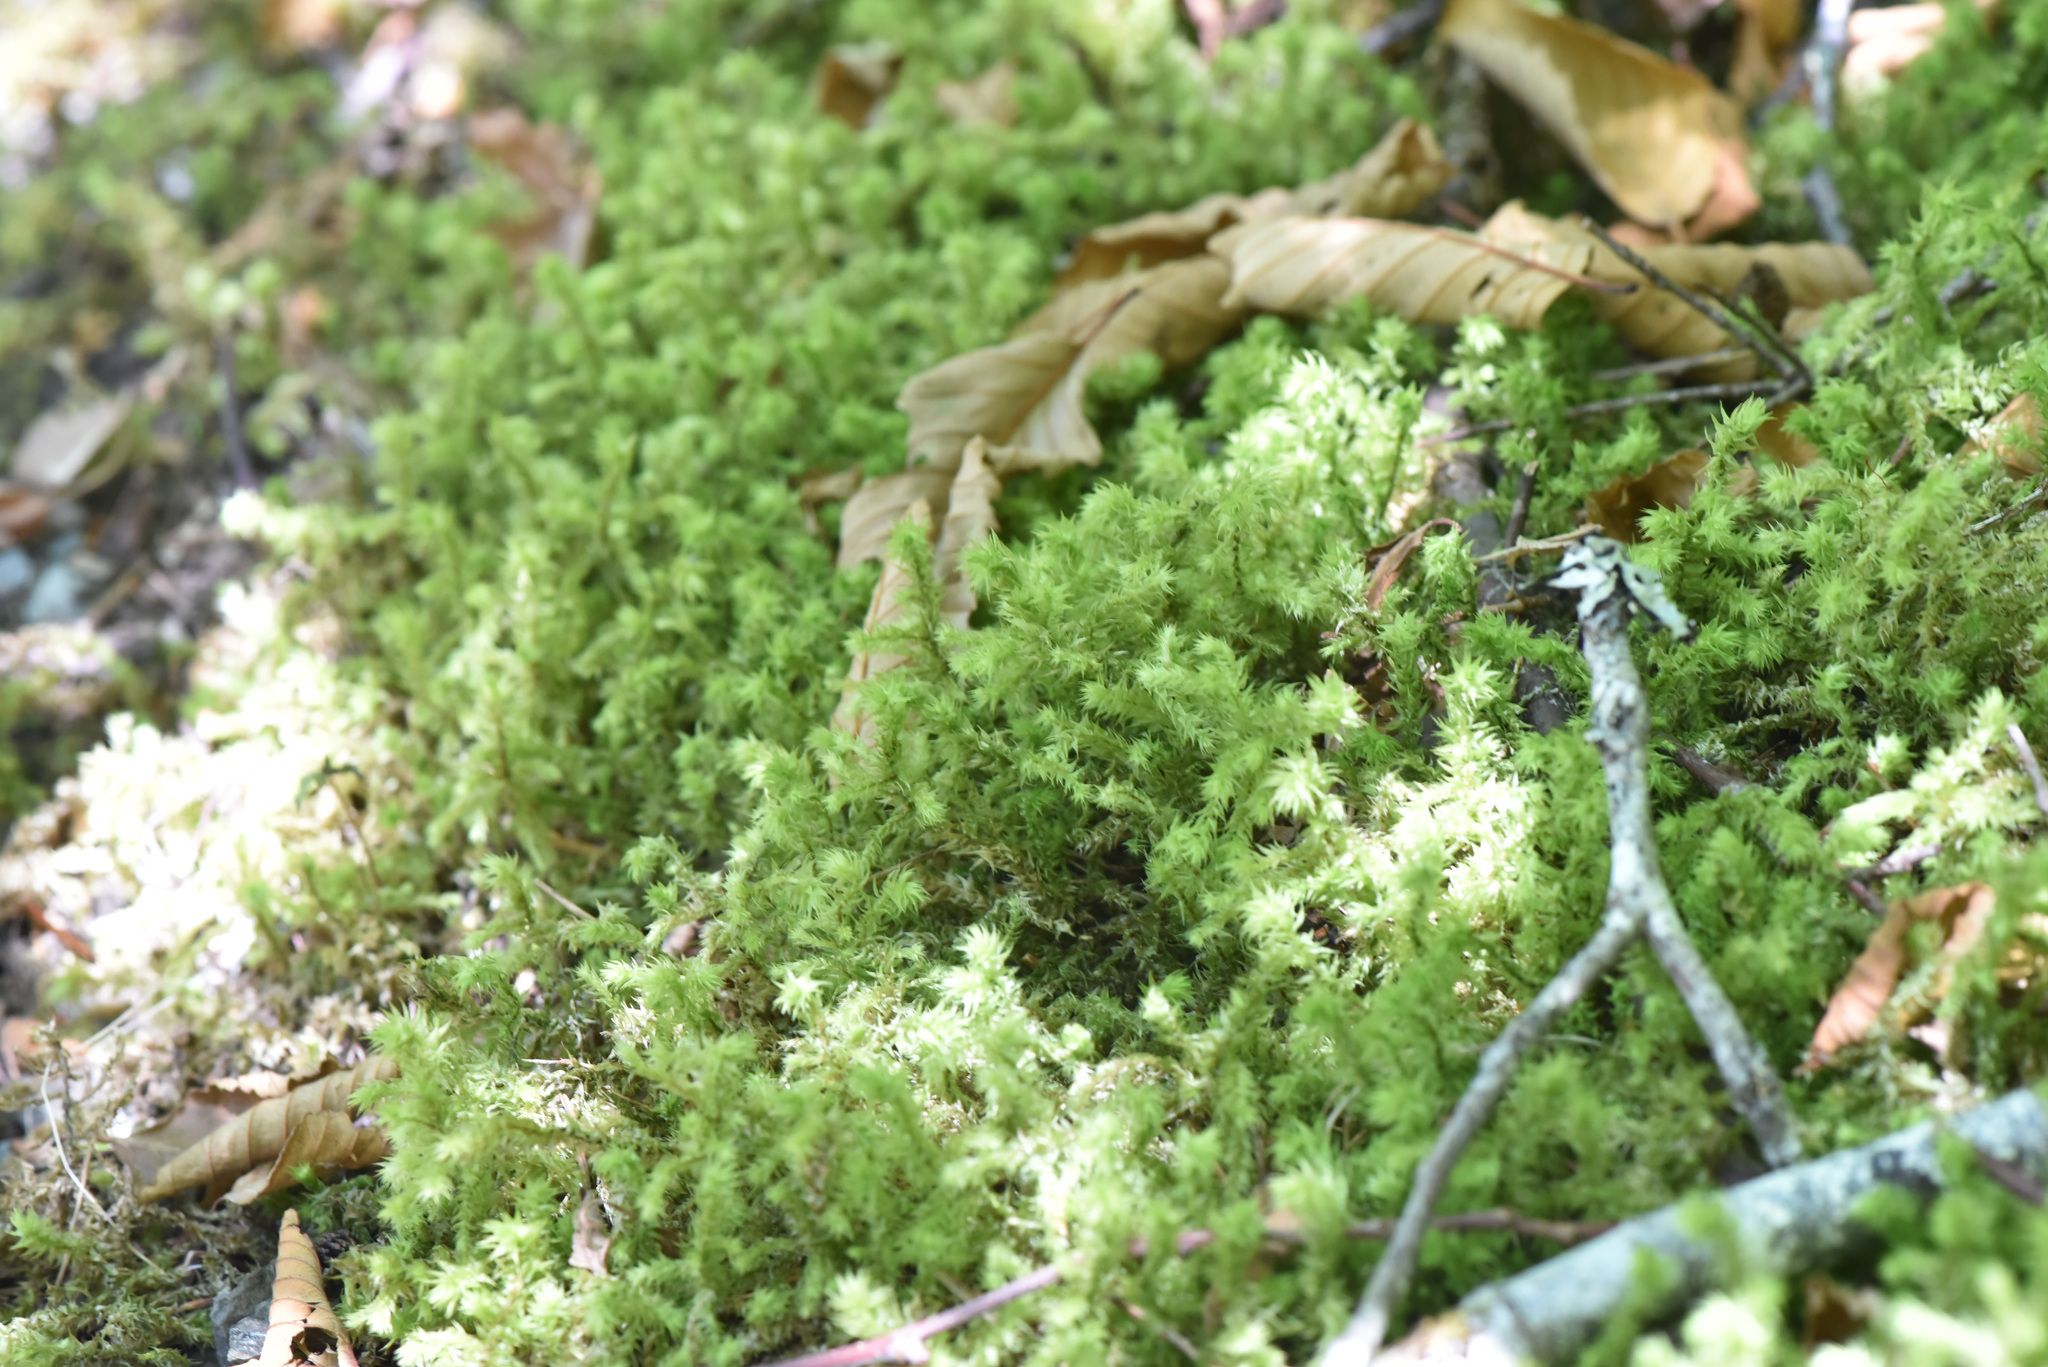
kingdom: Plantae
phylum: Bryophyta
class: Bryopsida
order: Hypnales
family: Hylocomiaceae
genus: Hylocomiadelphus
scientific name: Hylocomiadelphus triquetrus
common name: Rough goose neck moss
